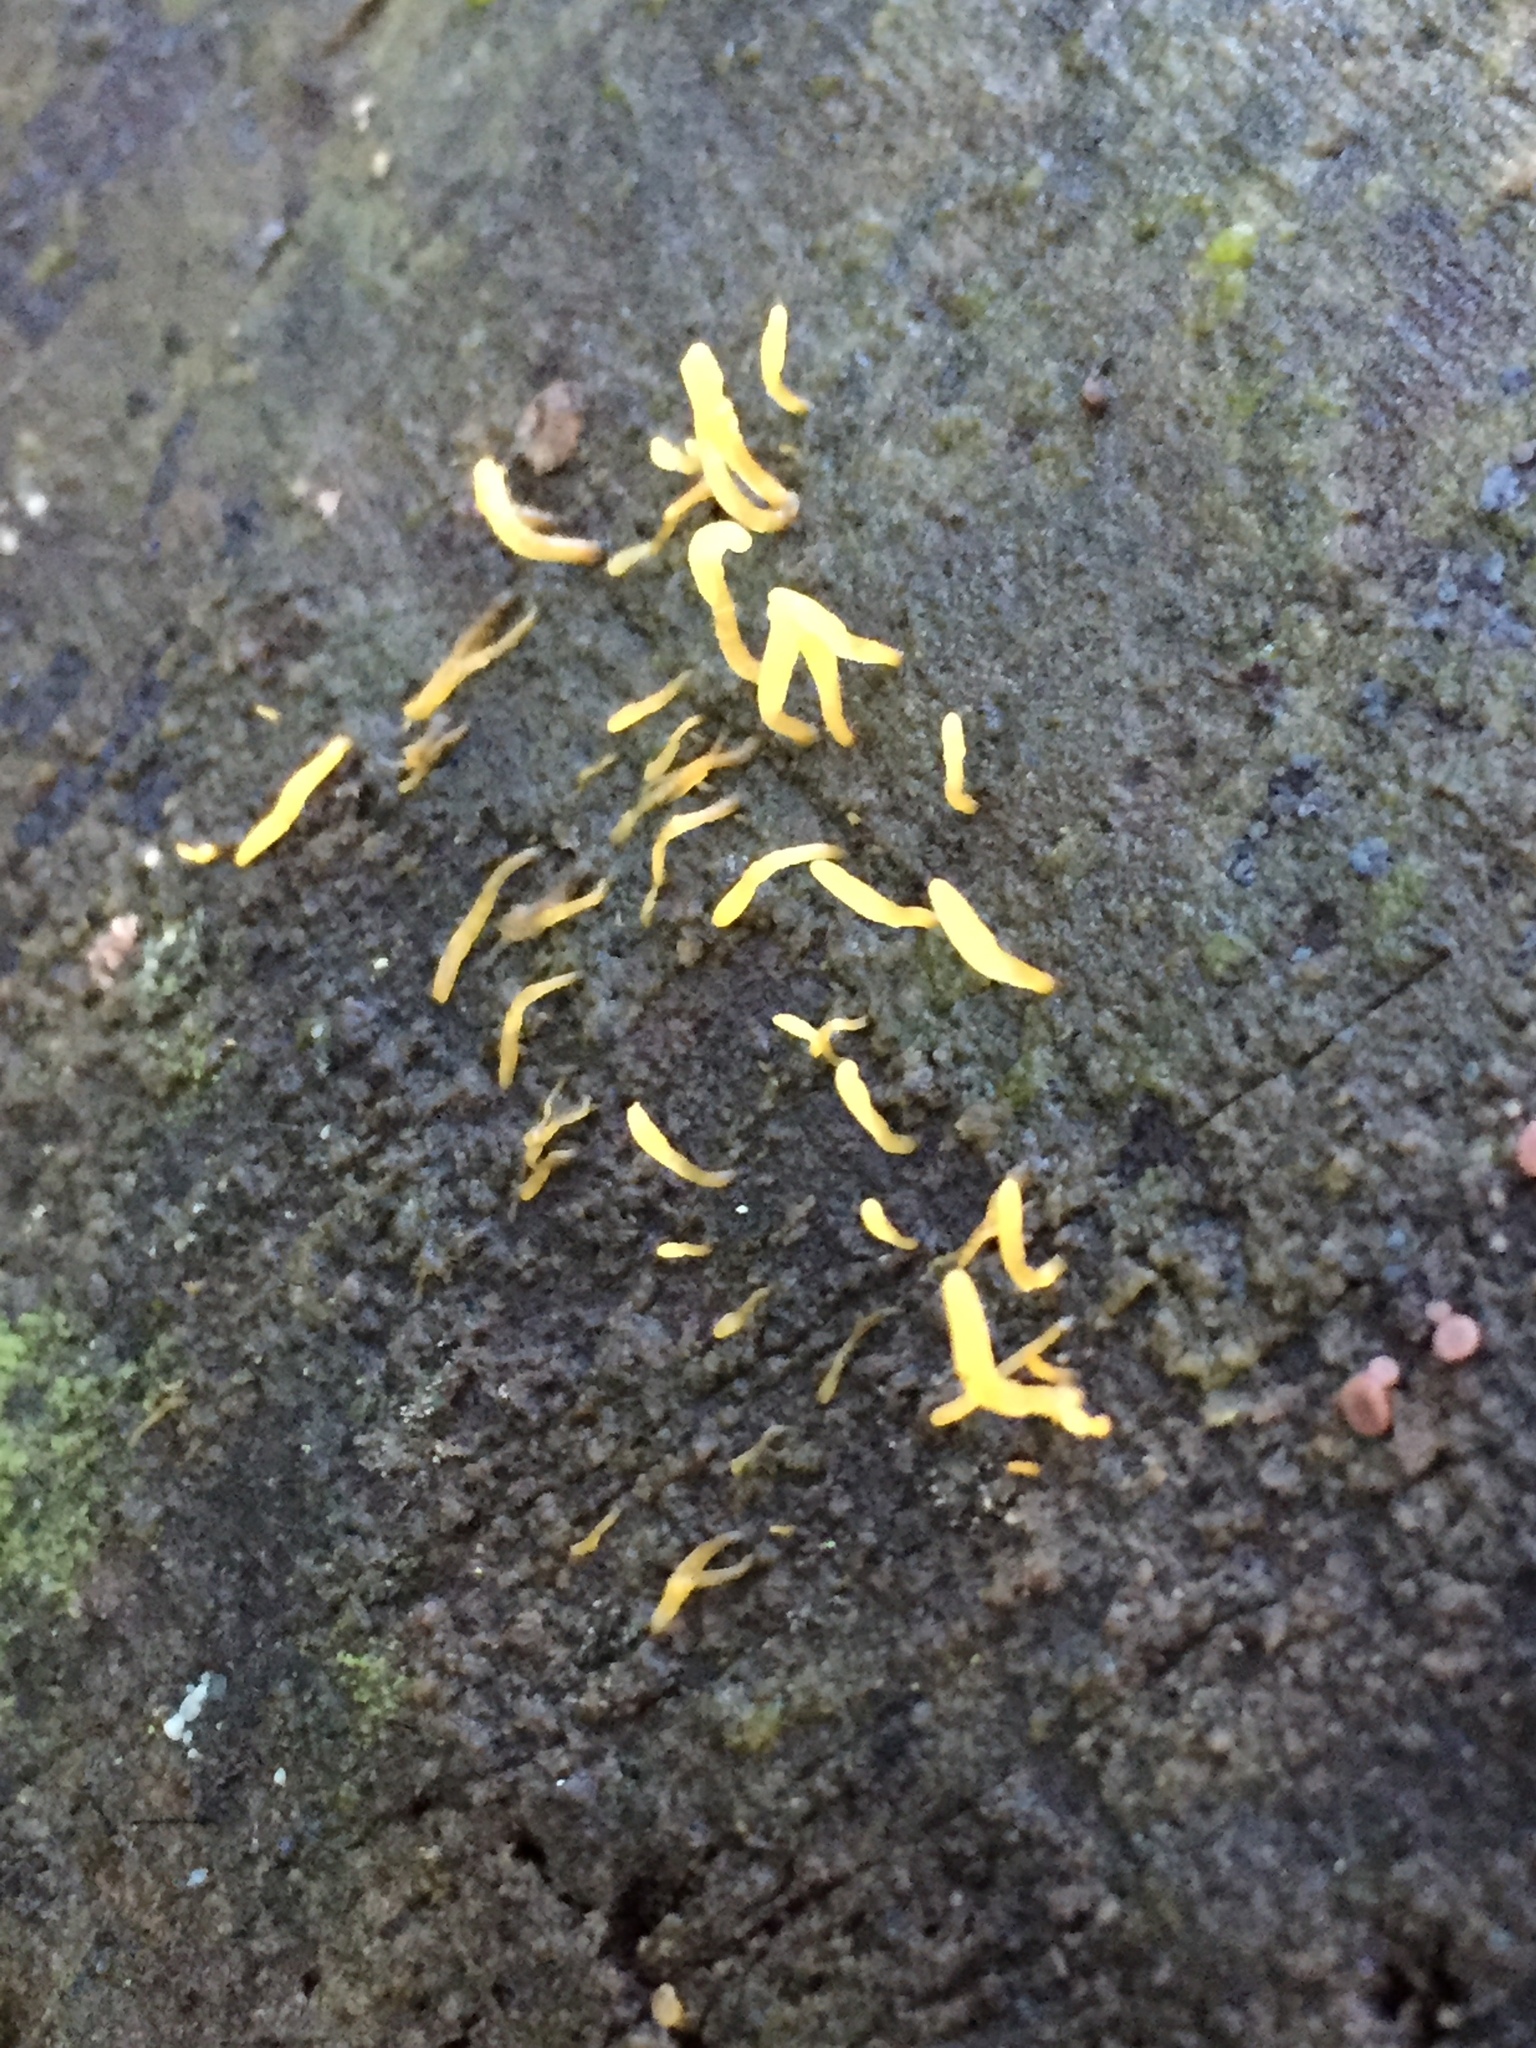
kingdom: Fungi
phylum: Basidiomycota
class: Dacrymycetes
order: Dacrymycetales
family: Dacrymycetaceae
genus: Calocera
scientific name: Calocera cornea
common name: Small stagshorn
